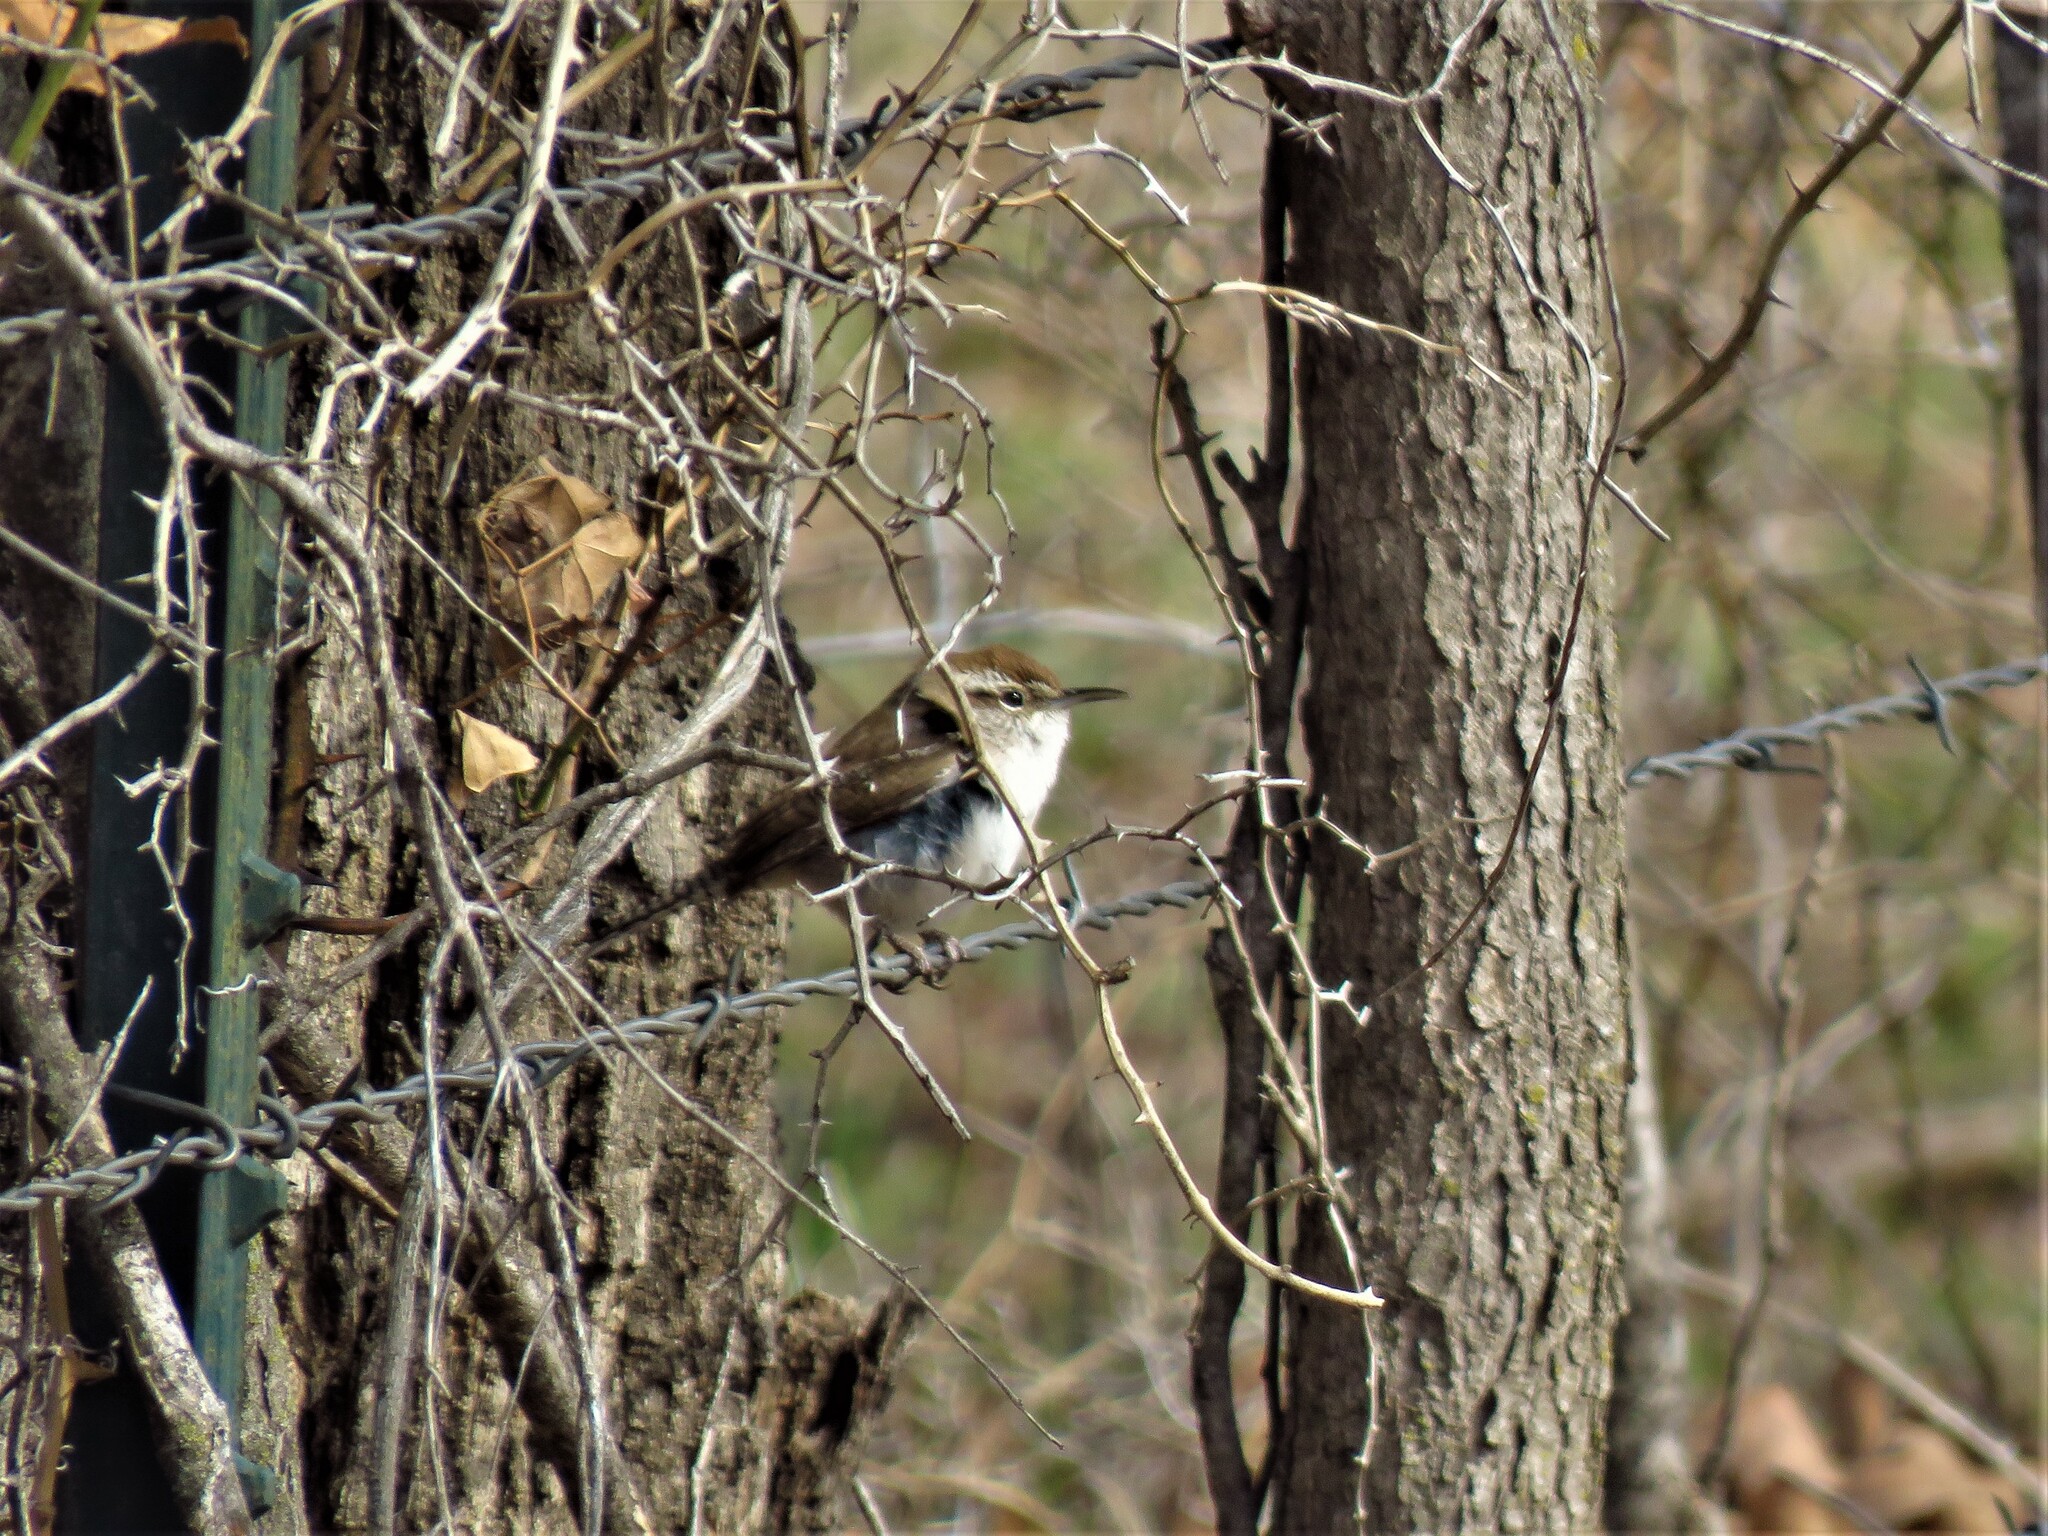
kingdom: Animalia
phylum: Chordata
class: Aves
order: Passeriformes
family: Troglodytidae
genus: Thryomanes
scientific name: Thryomanes bewickii
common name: Bewick's wren
